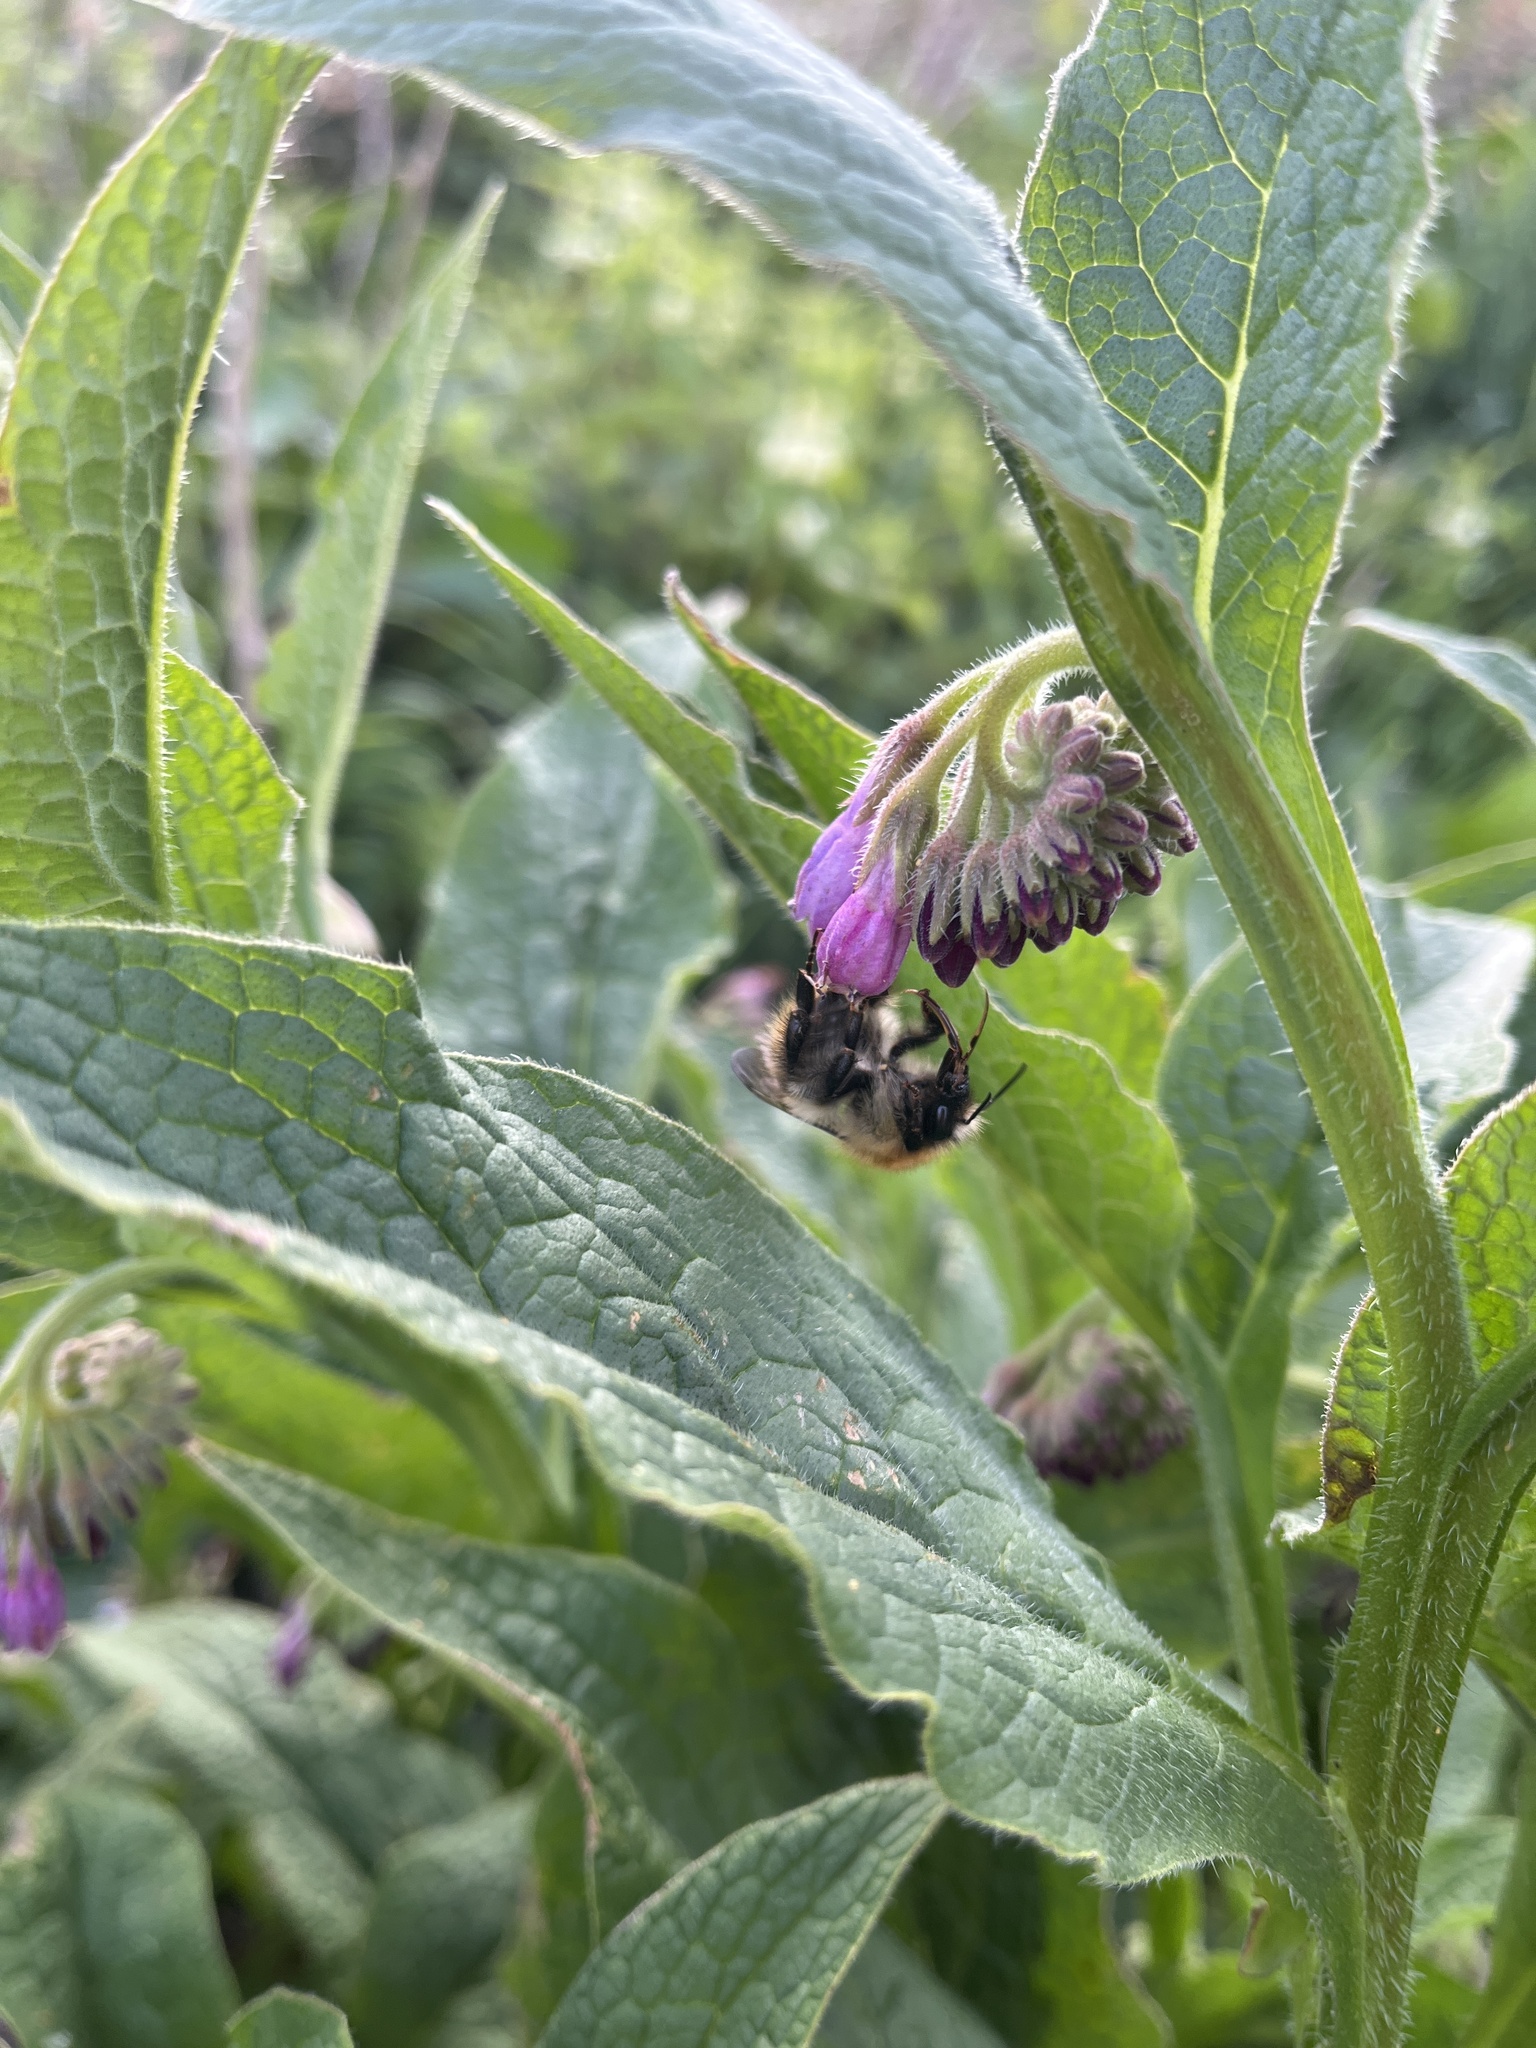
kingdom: Animalia
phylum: Arthropoda
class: Insecta
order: Hymenoptera
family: Apidae
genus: Bombus
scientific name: Bombus pascuorum
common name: Common carder bee
